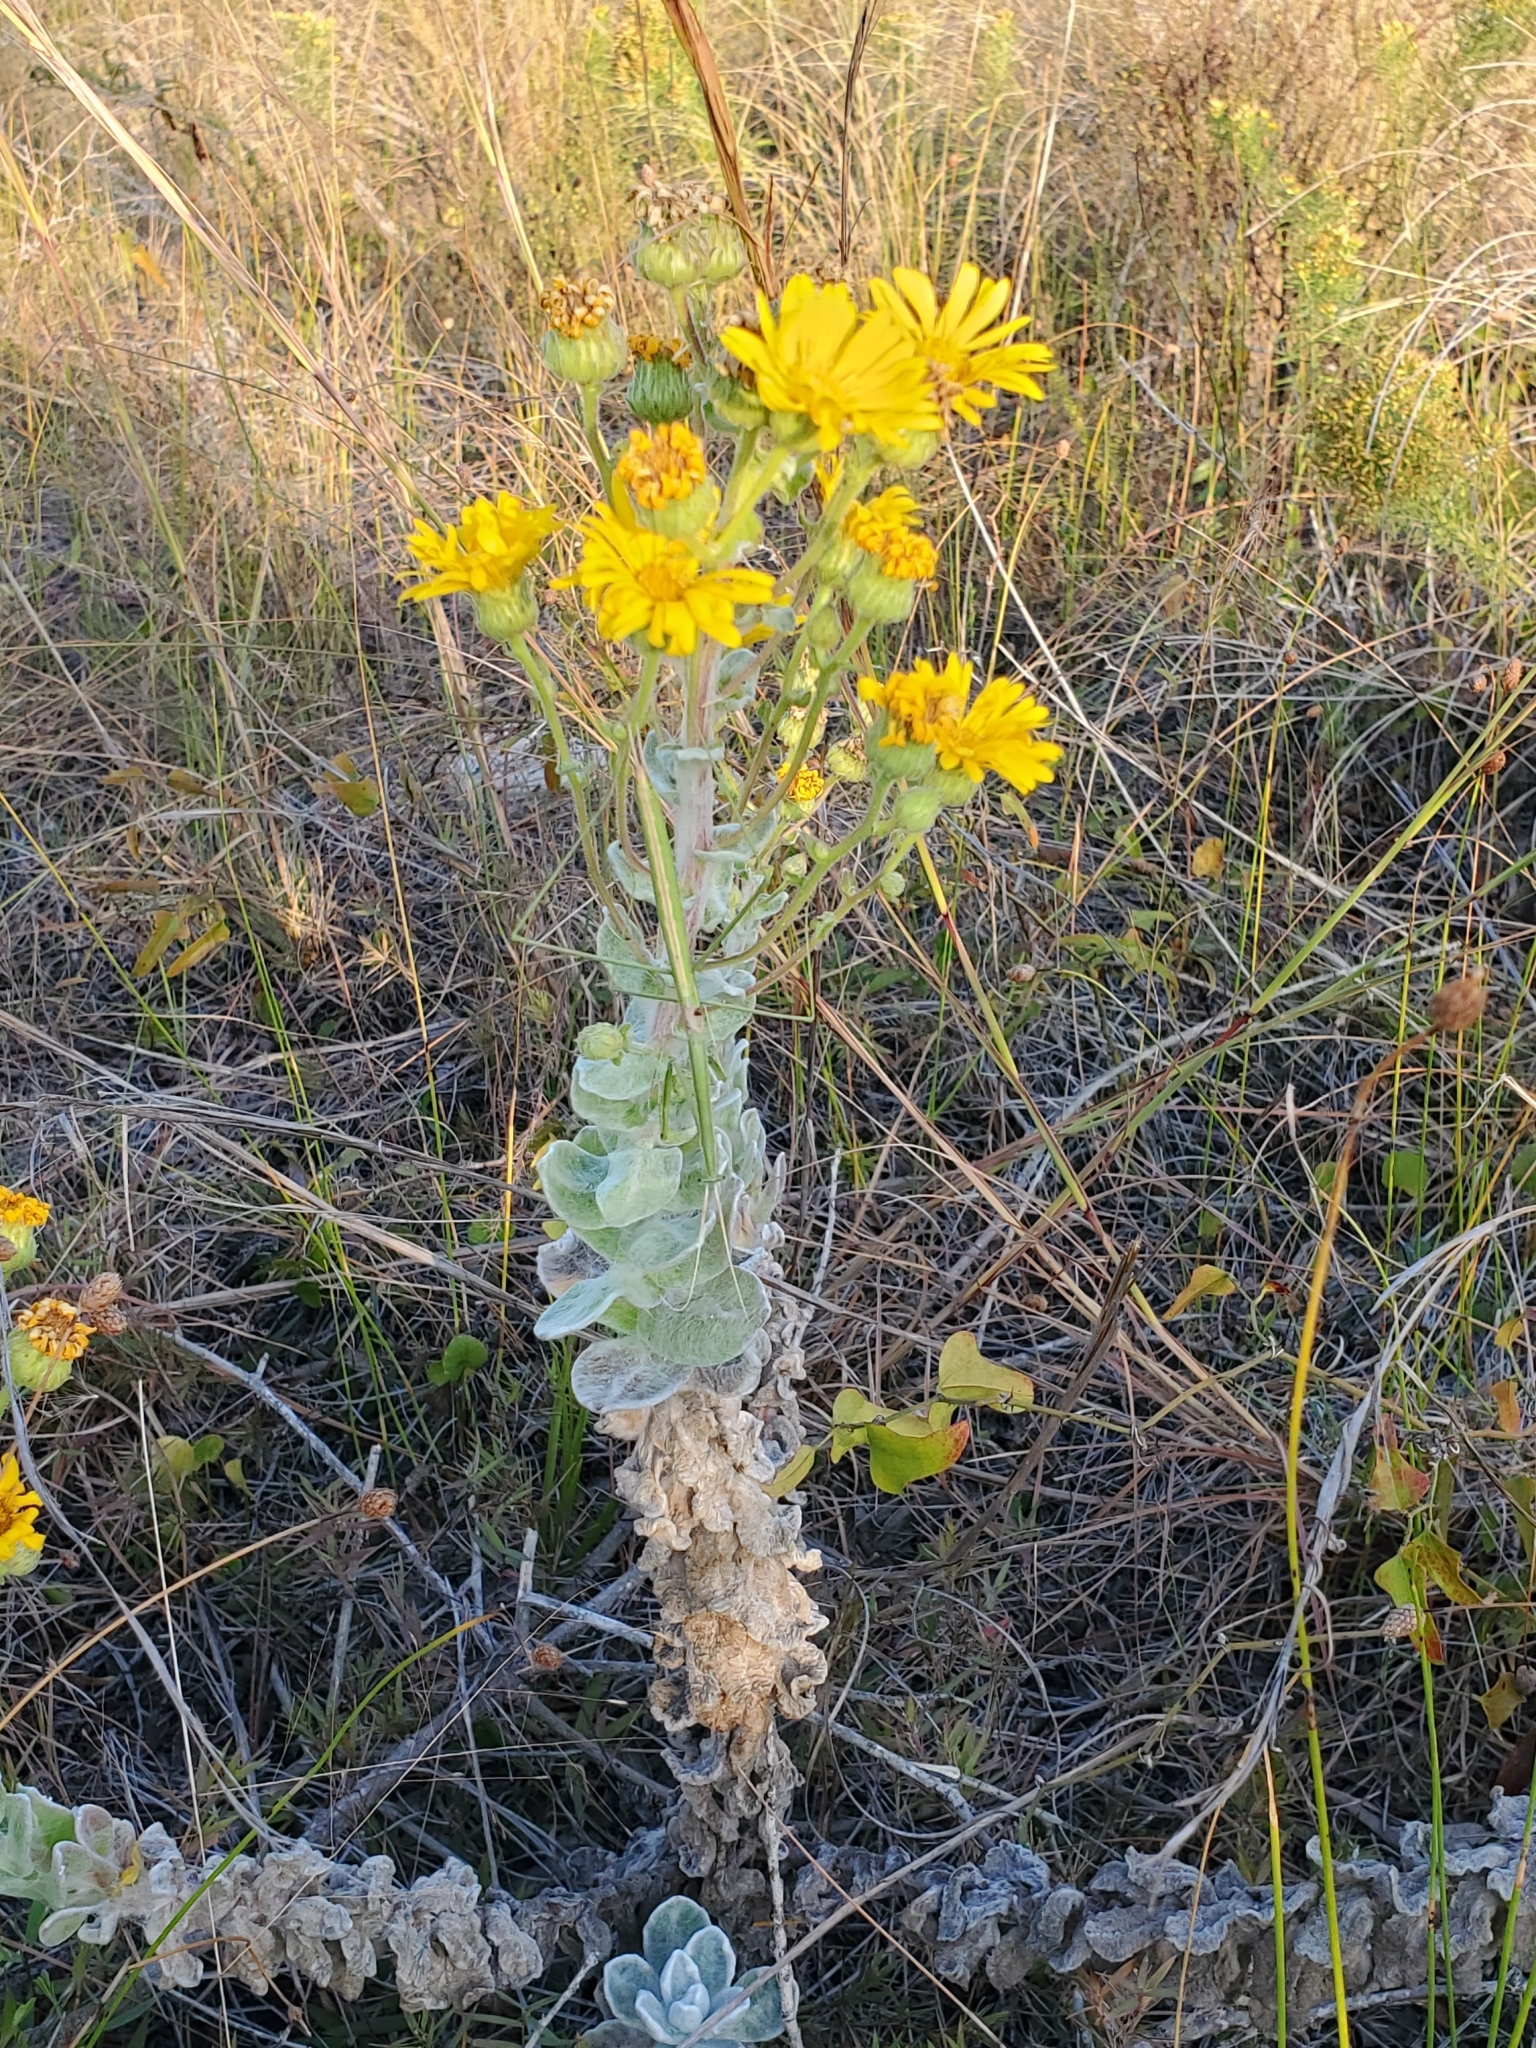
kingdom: Plantae
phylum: Tracheophyta
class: Magnoliopsida
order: Asterales
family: Asteraceae
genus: Chrysopsis
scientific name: Chrysopsis godfreyi
